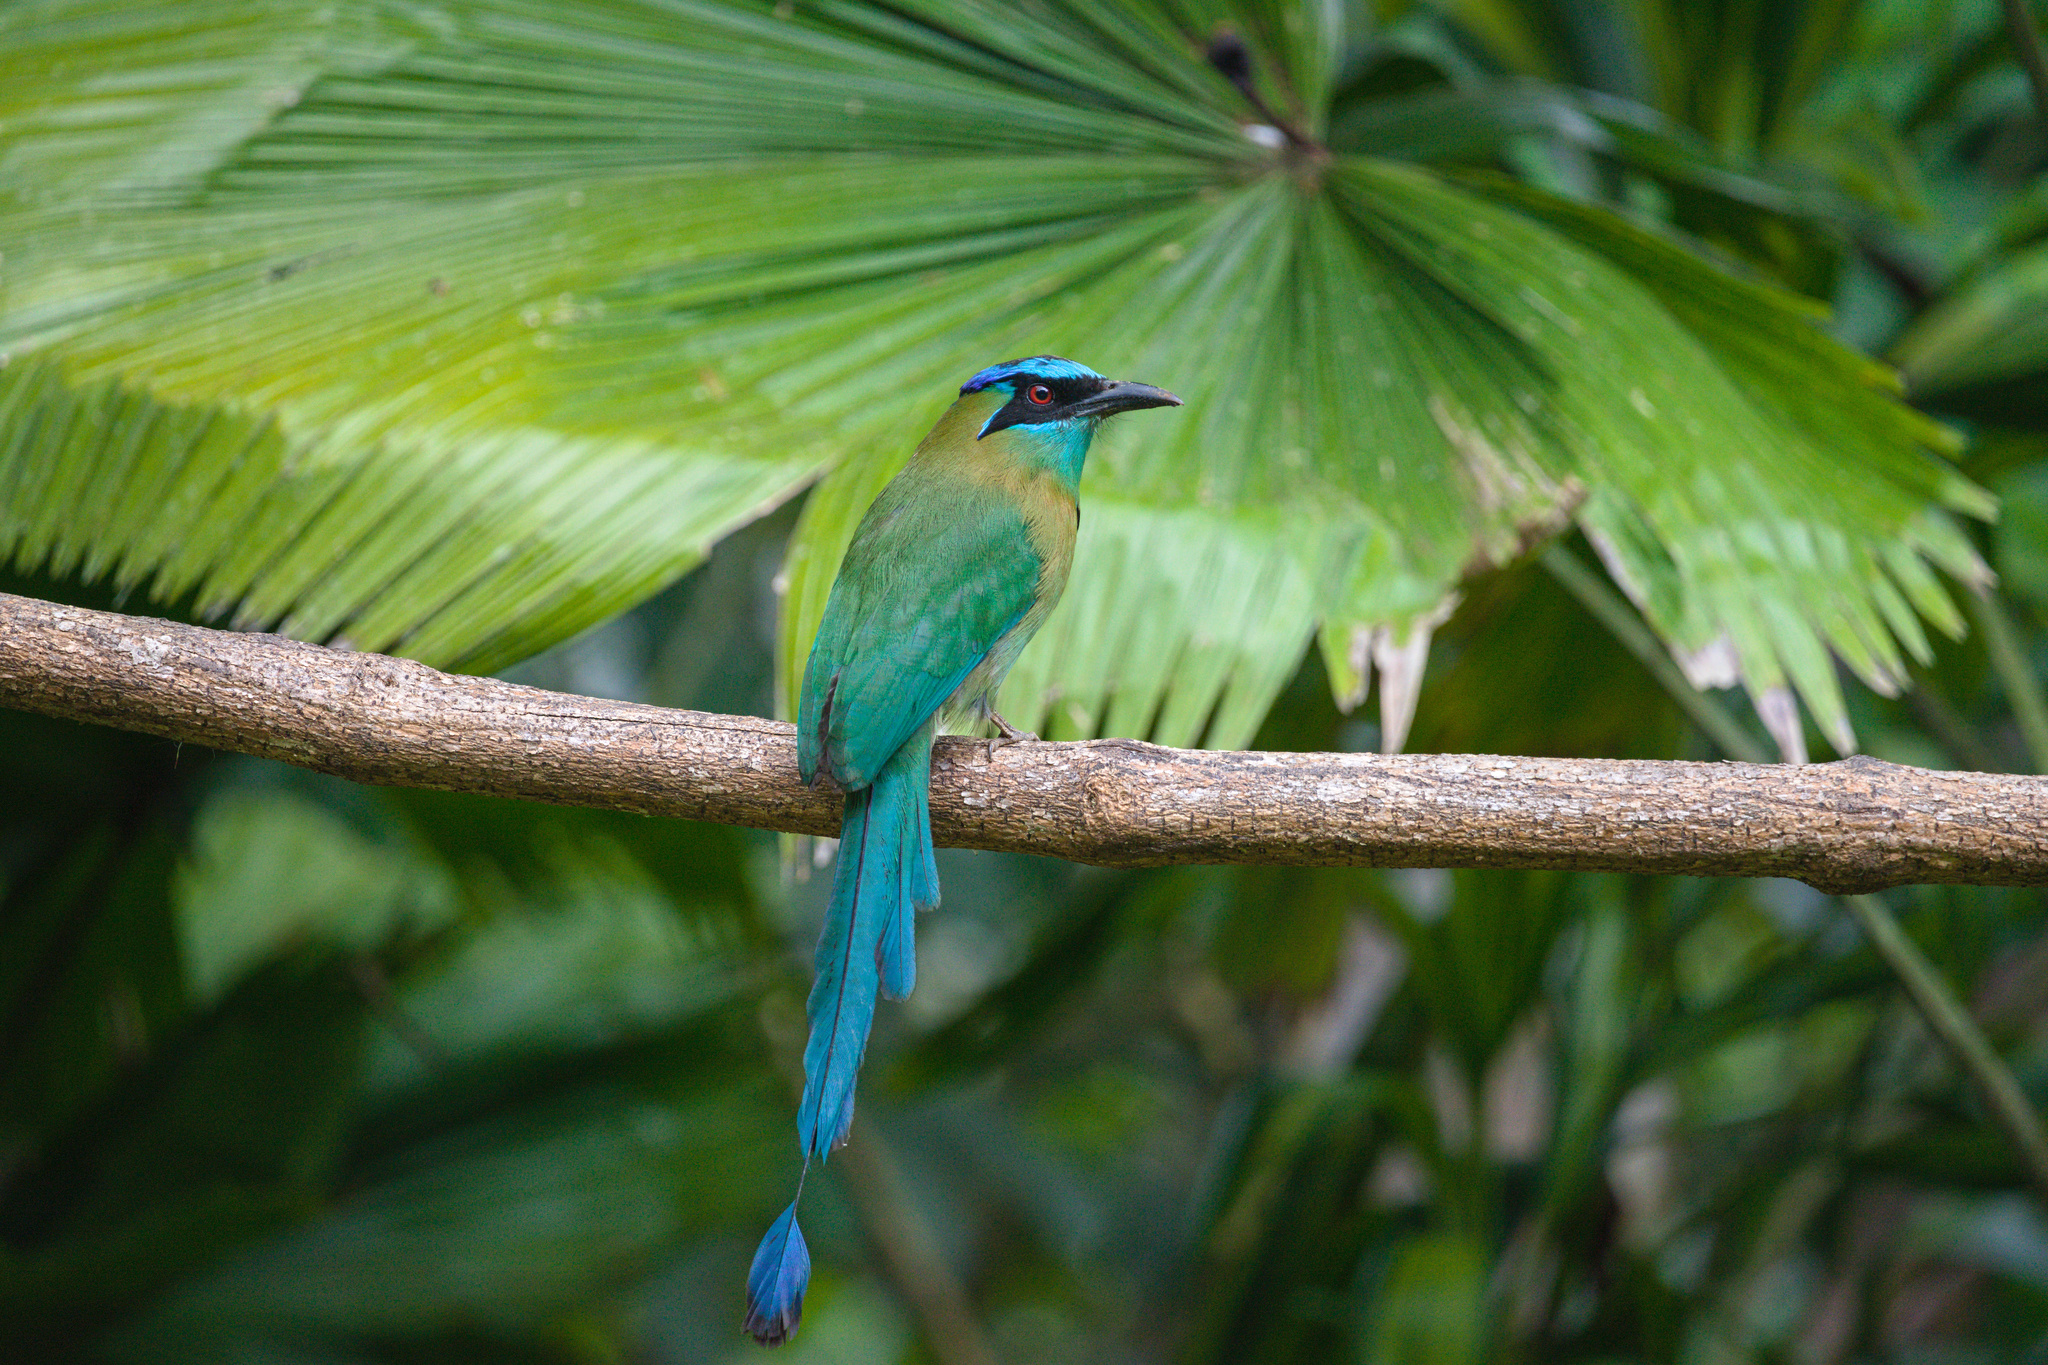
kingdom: Animalia
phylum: Chordata
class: Aves
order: Coraciiformes
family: Momotidae
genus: Momotus
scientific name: Momotus lessonii
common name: Lesson's motmot
